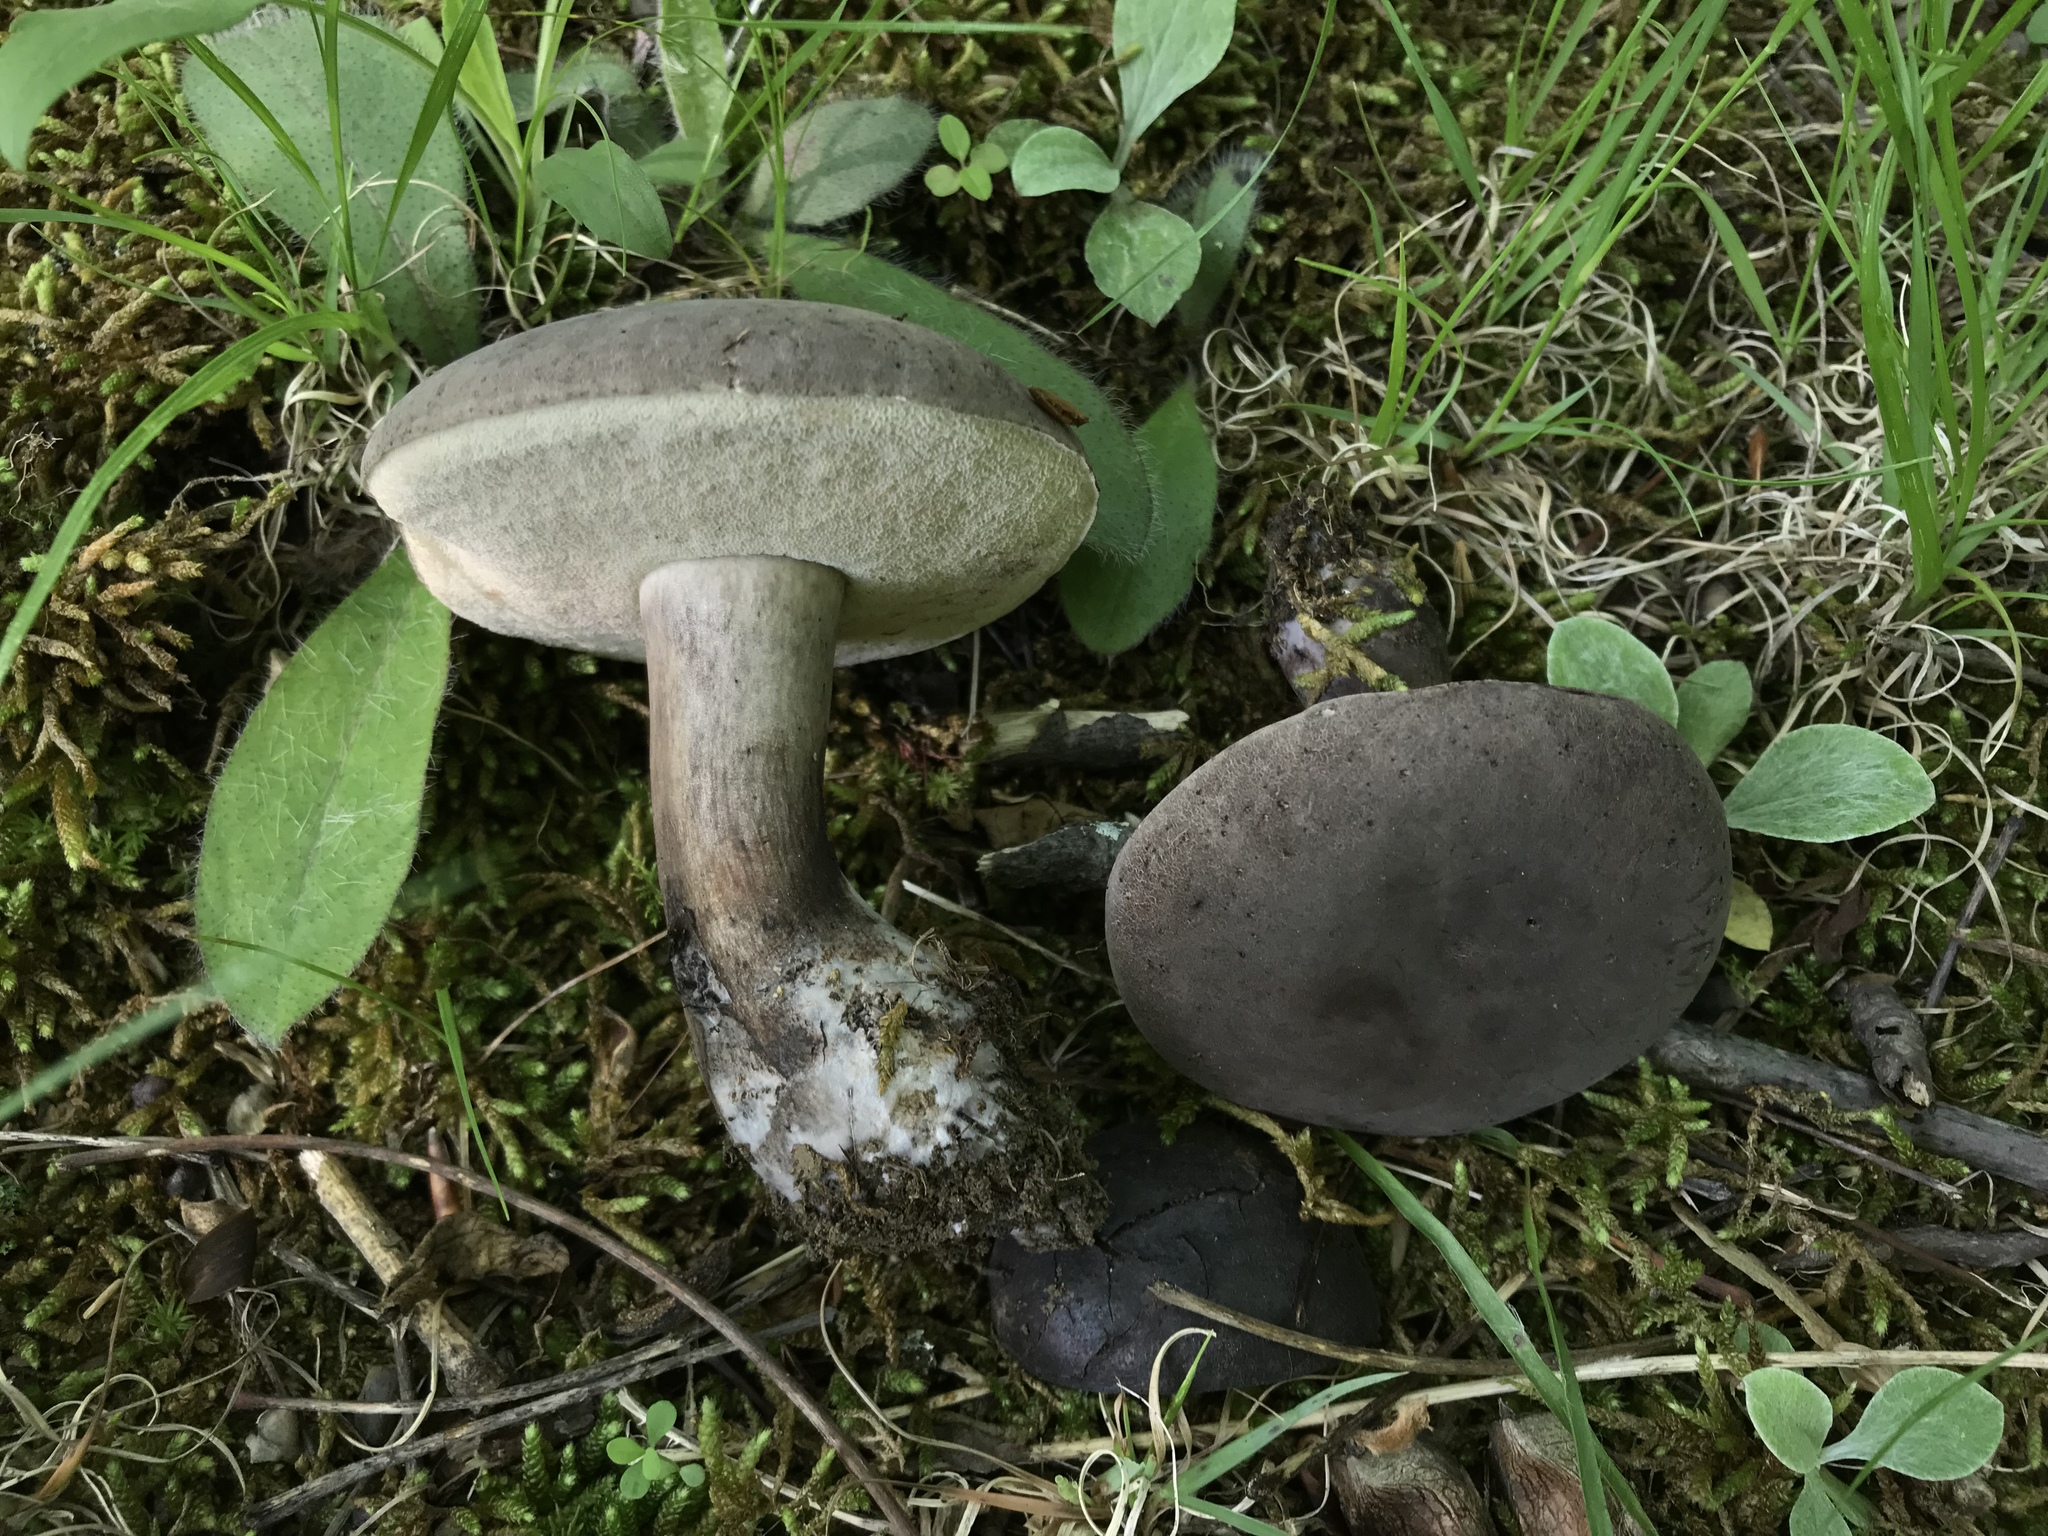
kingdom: Fungi
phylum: Basidiomycota
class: Agaricomycetes
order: Boletales
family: Boletaceae
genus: Tylopilus
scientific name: Tylopilus alboater
